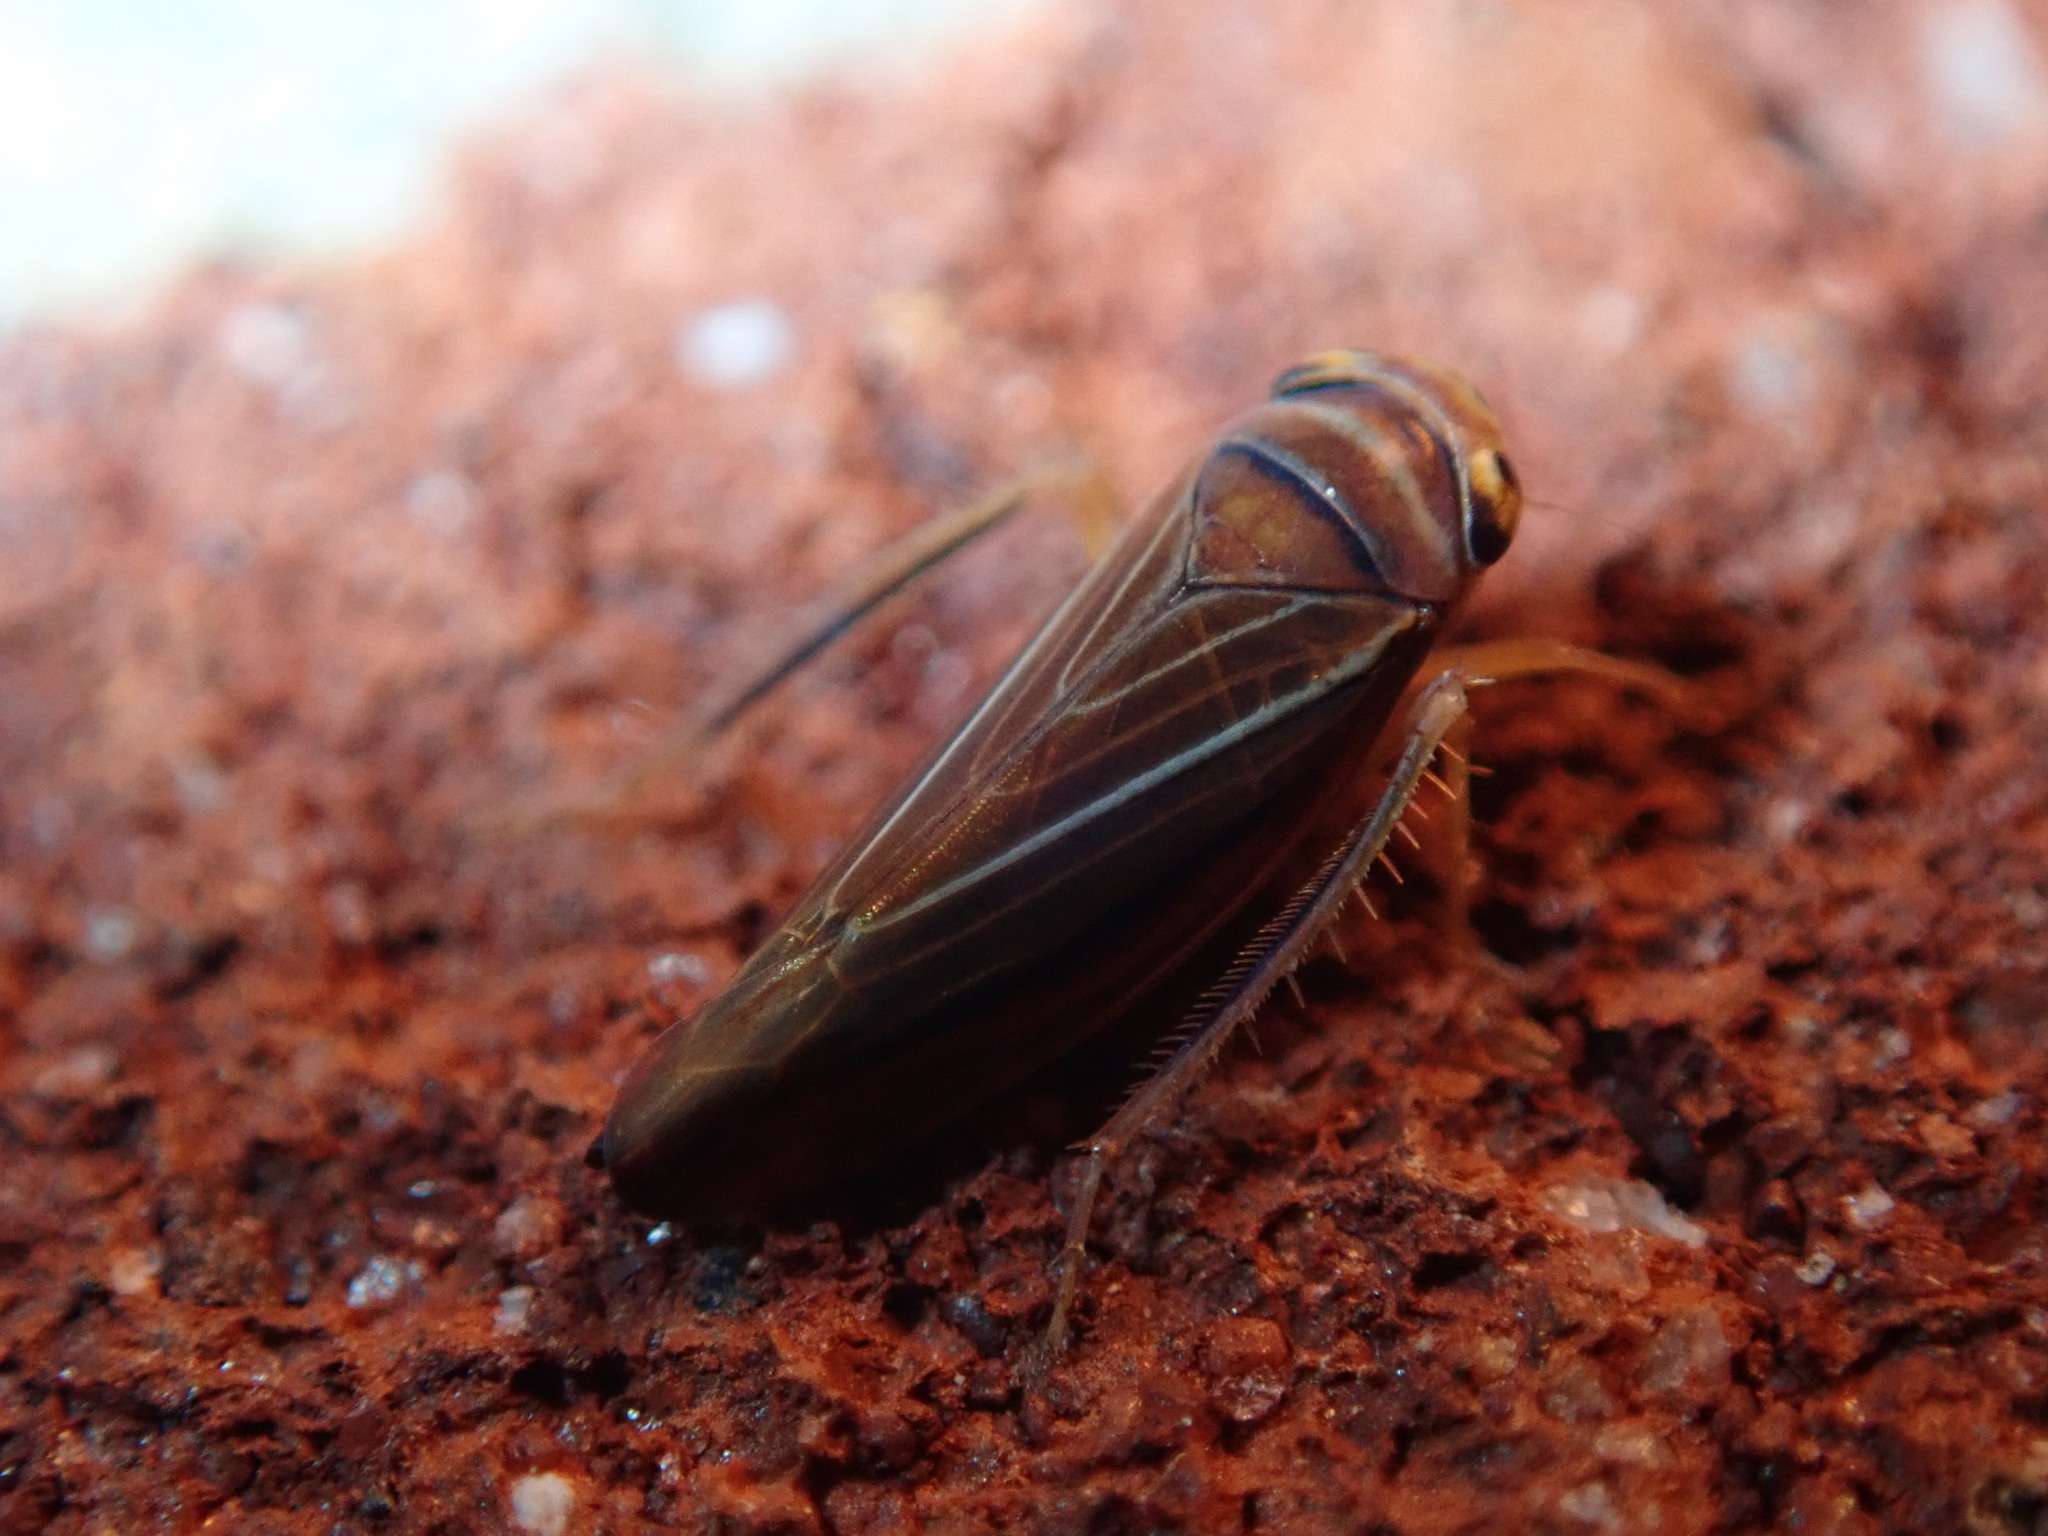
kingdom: Animalia
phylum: Arthropoda
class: Insecta
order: Hemiptera
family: Cicadellidae
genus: Idiodonus
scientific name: Idiodonus kennicotti
